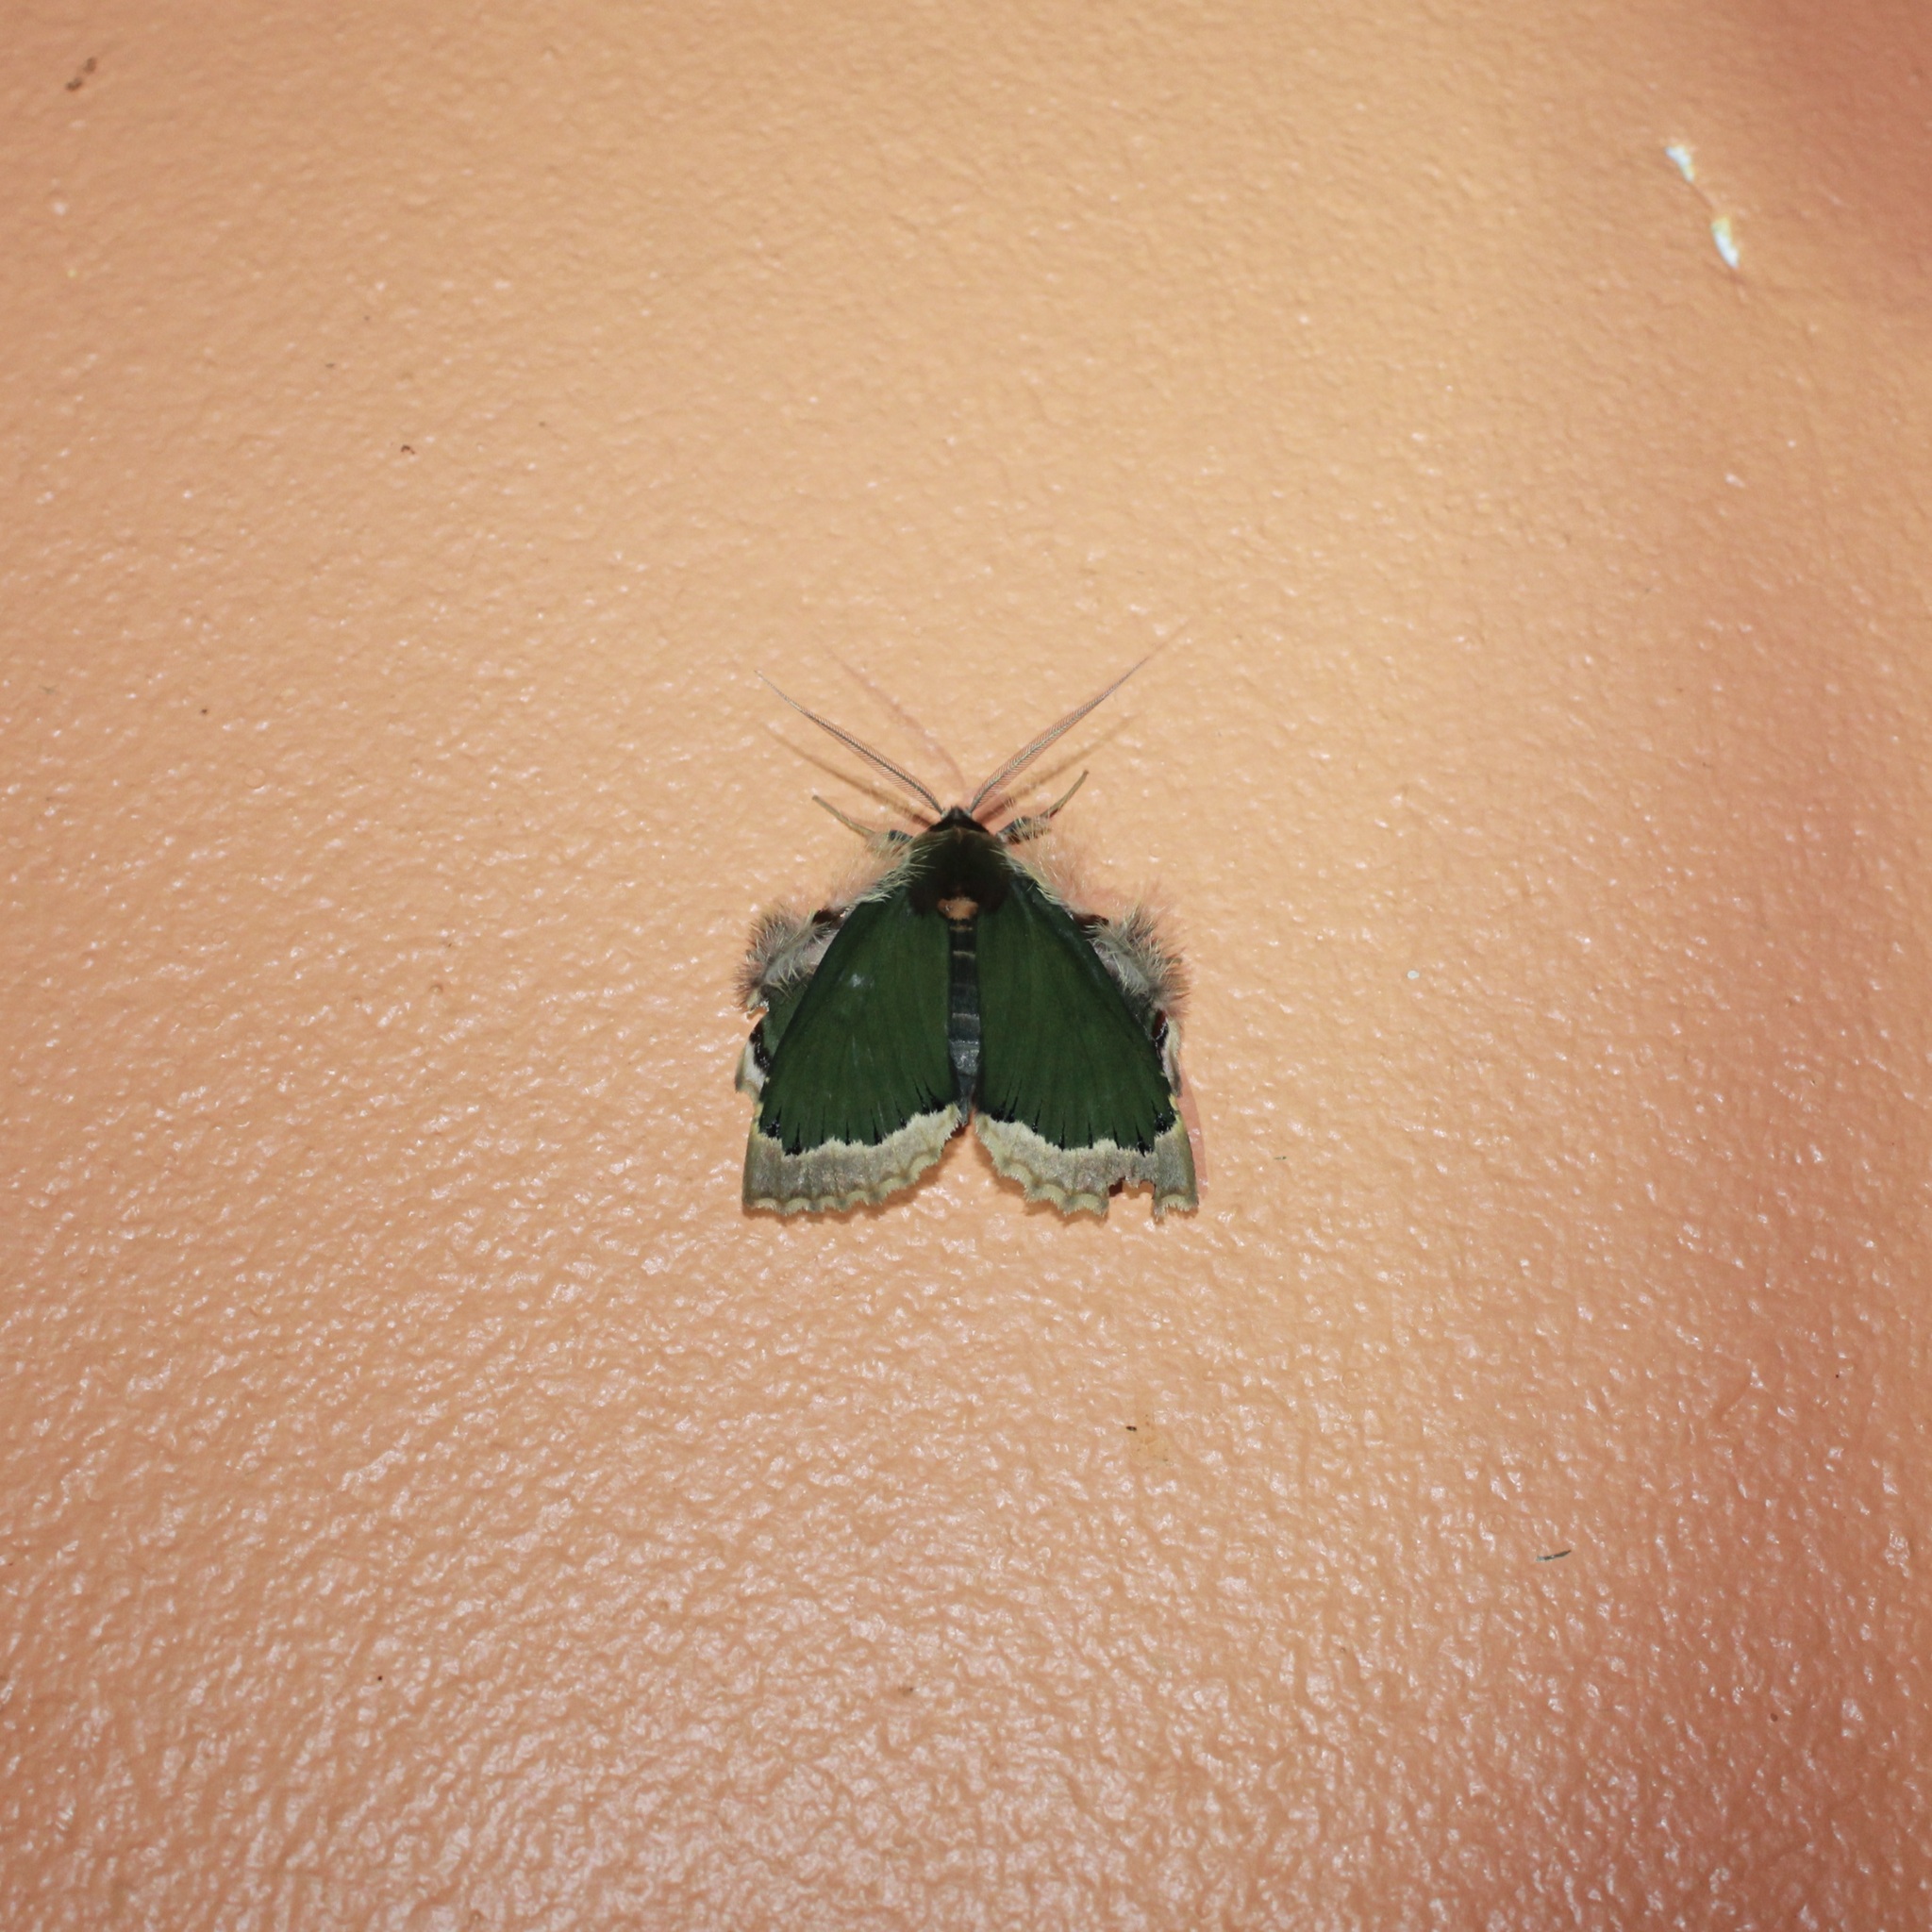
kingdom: Animalia
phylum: Arthropoda
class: Insecta
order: Lepidoptera
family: Erebidae
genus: Ceroctena
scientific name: Ceroctena amynta
